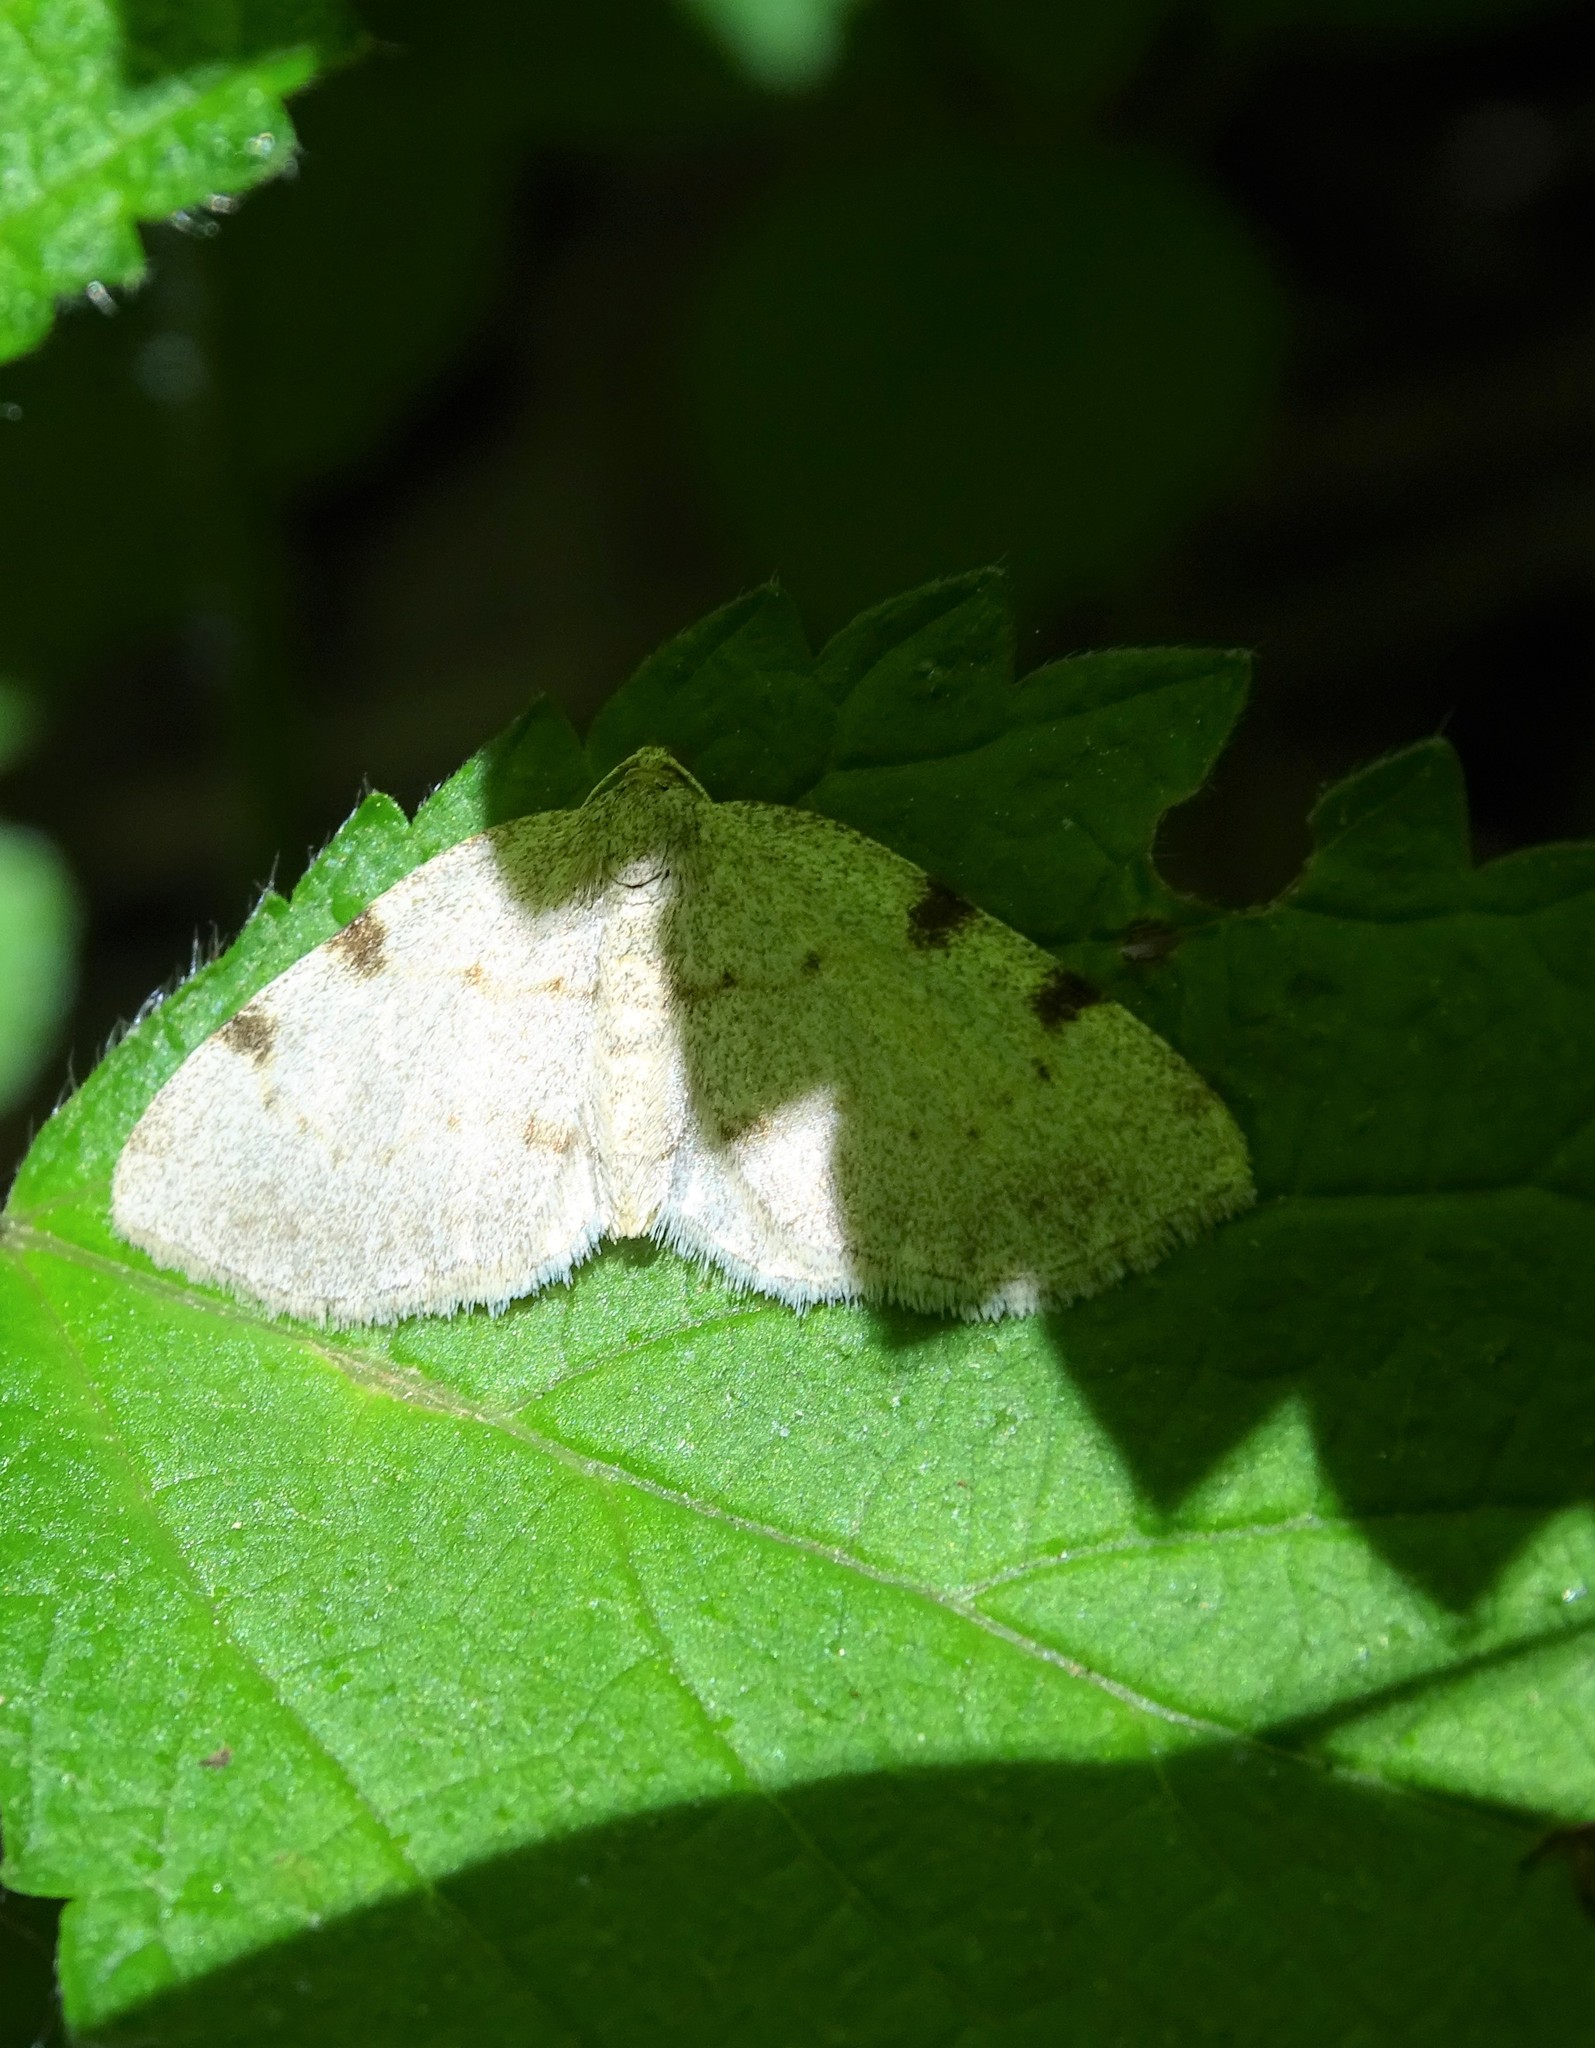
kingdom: Animalia
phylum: Arthropoda
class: Insecta
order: Lepidoptera
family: Geometridae
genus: Heterophleps
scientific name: Heterophleps refusaria
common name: Three-patched bigwing
